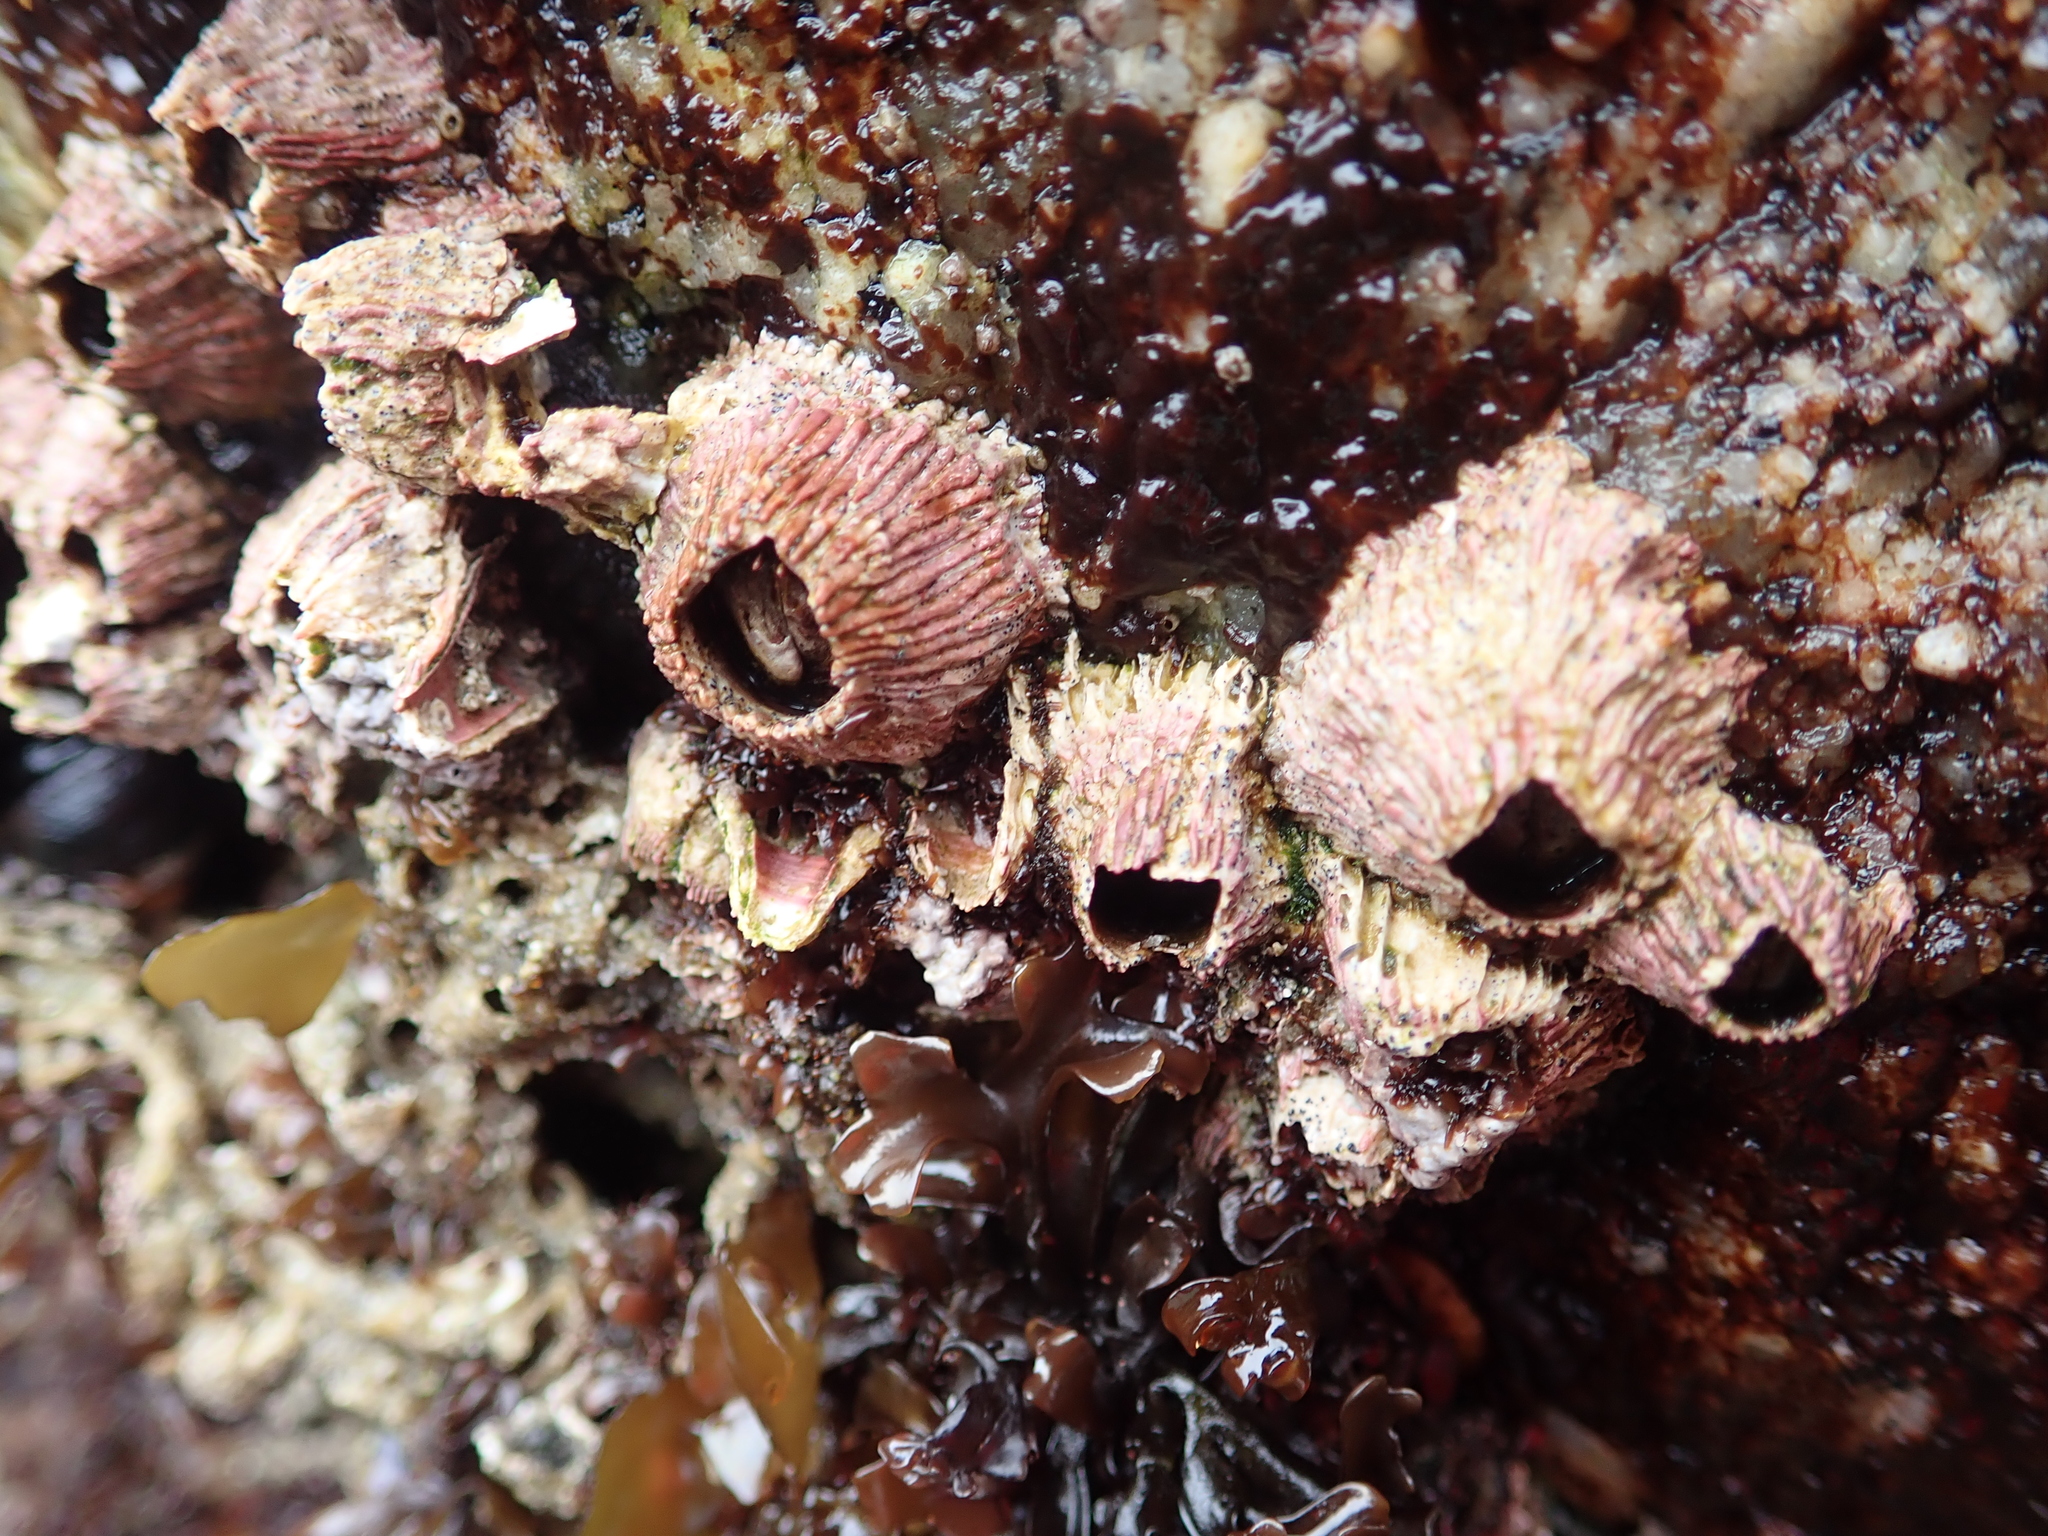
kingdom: Animalia
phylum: Arthropoda
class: Maxillopoda
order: Sessilia
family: Tetraclitidae
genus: Tetraclita
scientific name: Tetraclita rubescens
